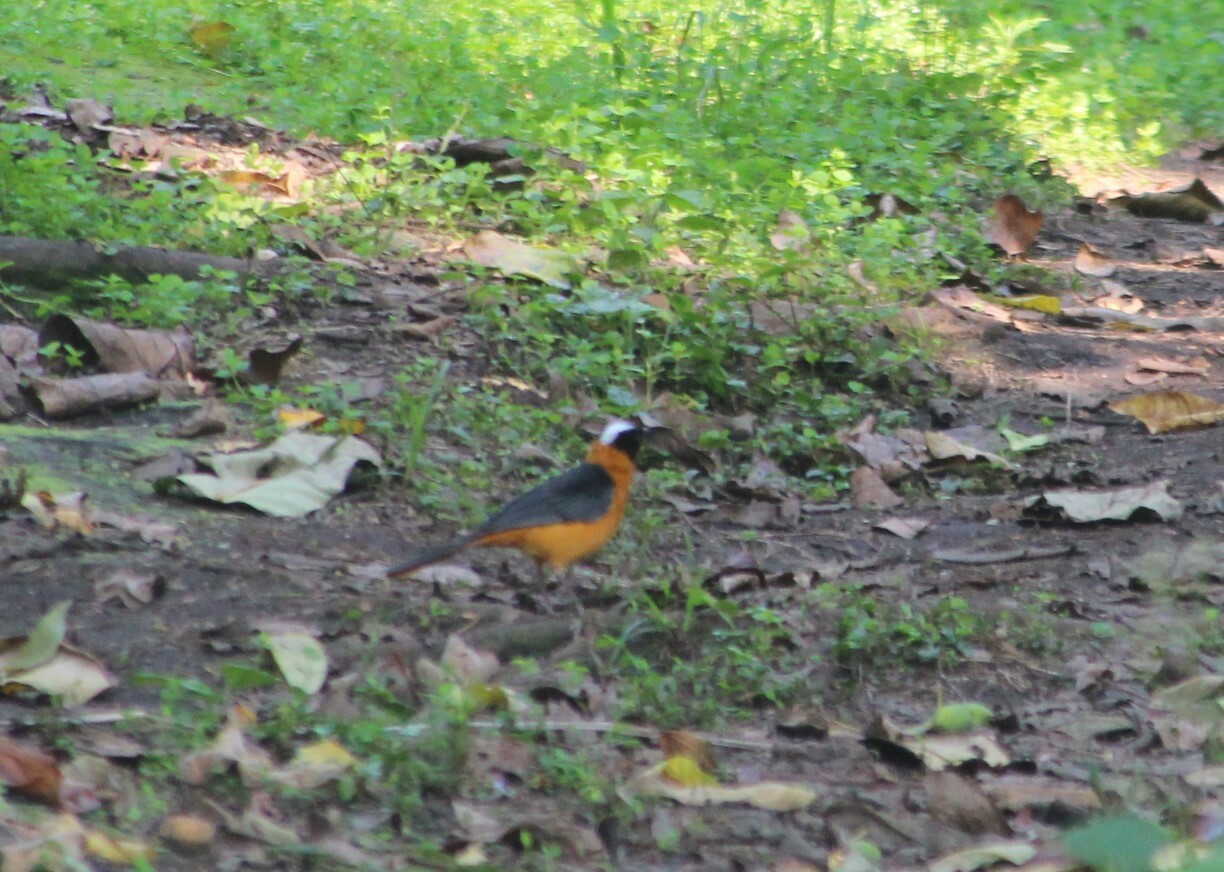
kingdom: Animalia
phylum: Chordata
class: Aves
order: Passeriformes
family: Muscicapidae
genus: Cossypha
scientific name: Cossypha niveicapilla
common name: Snowy-crowned robin-chat
